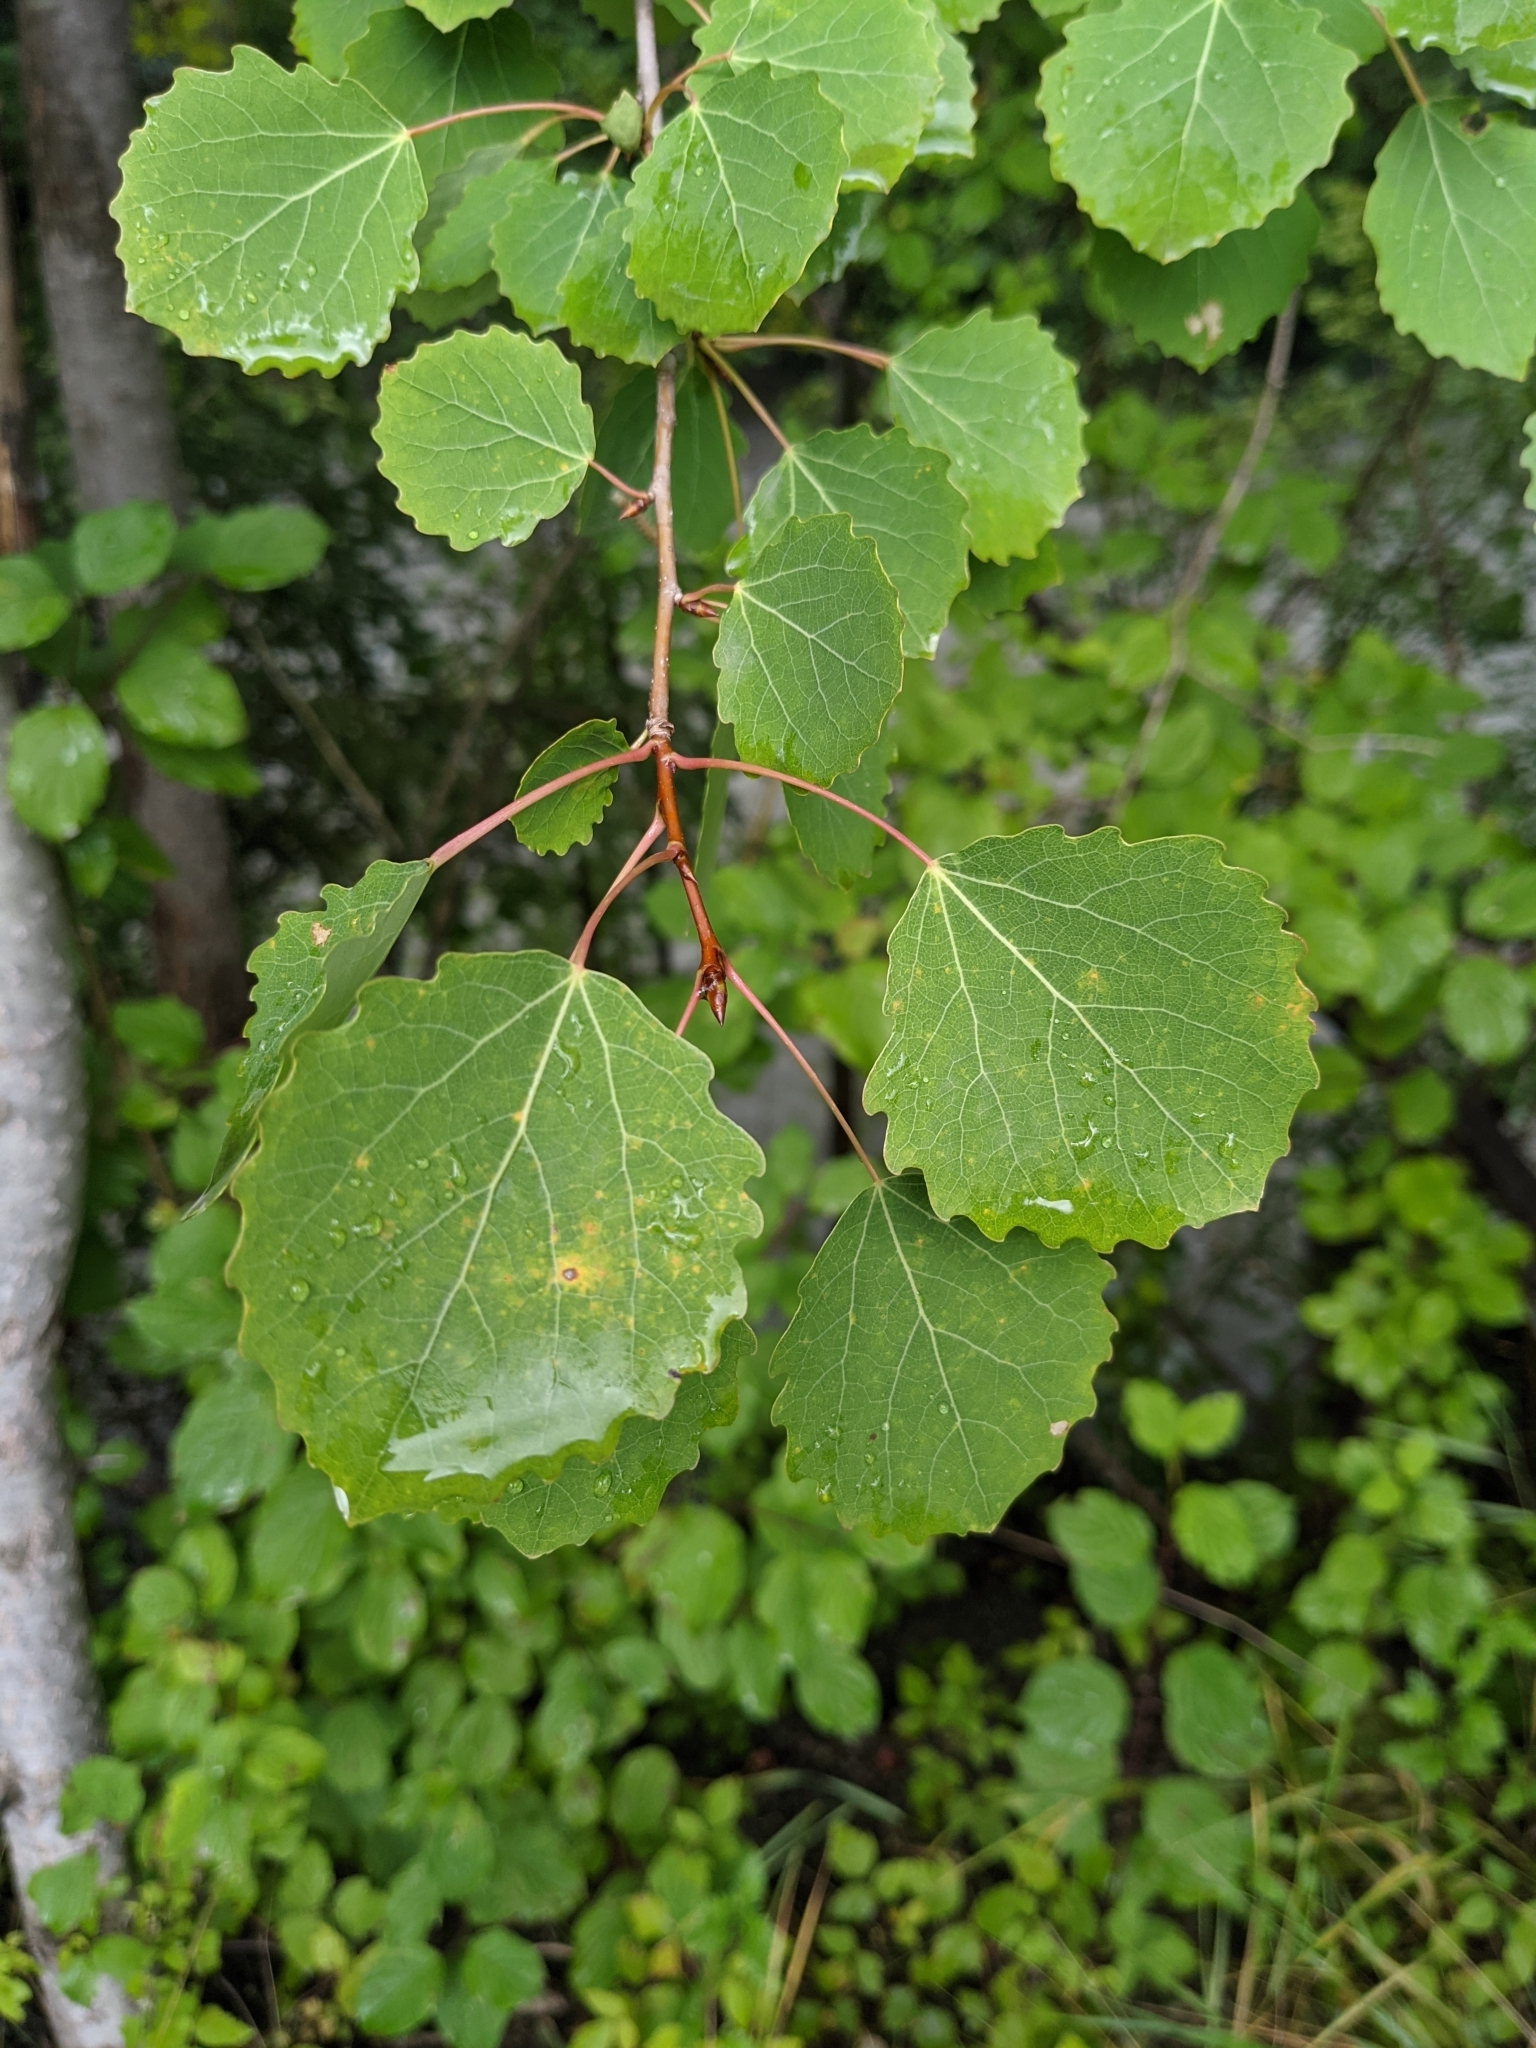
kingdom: Plantae
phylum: Tracheophyta
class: Magnoliopsida
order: Malpighiales
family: Salicaceae
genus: Populus
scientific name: Populus tremula
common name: European aspen
